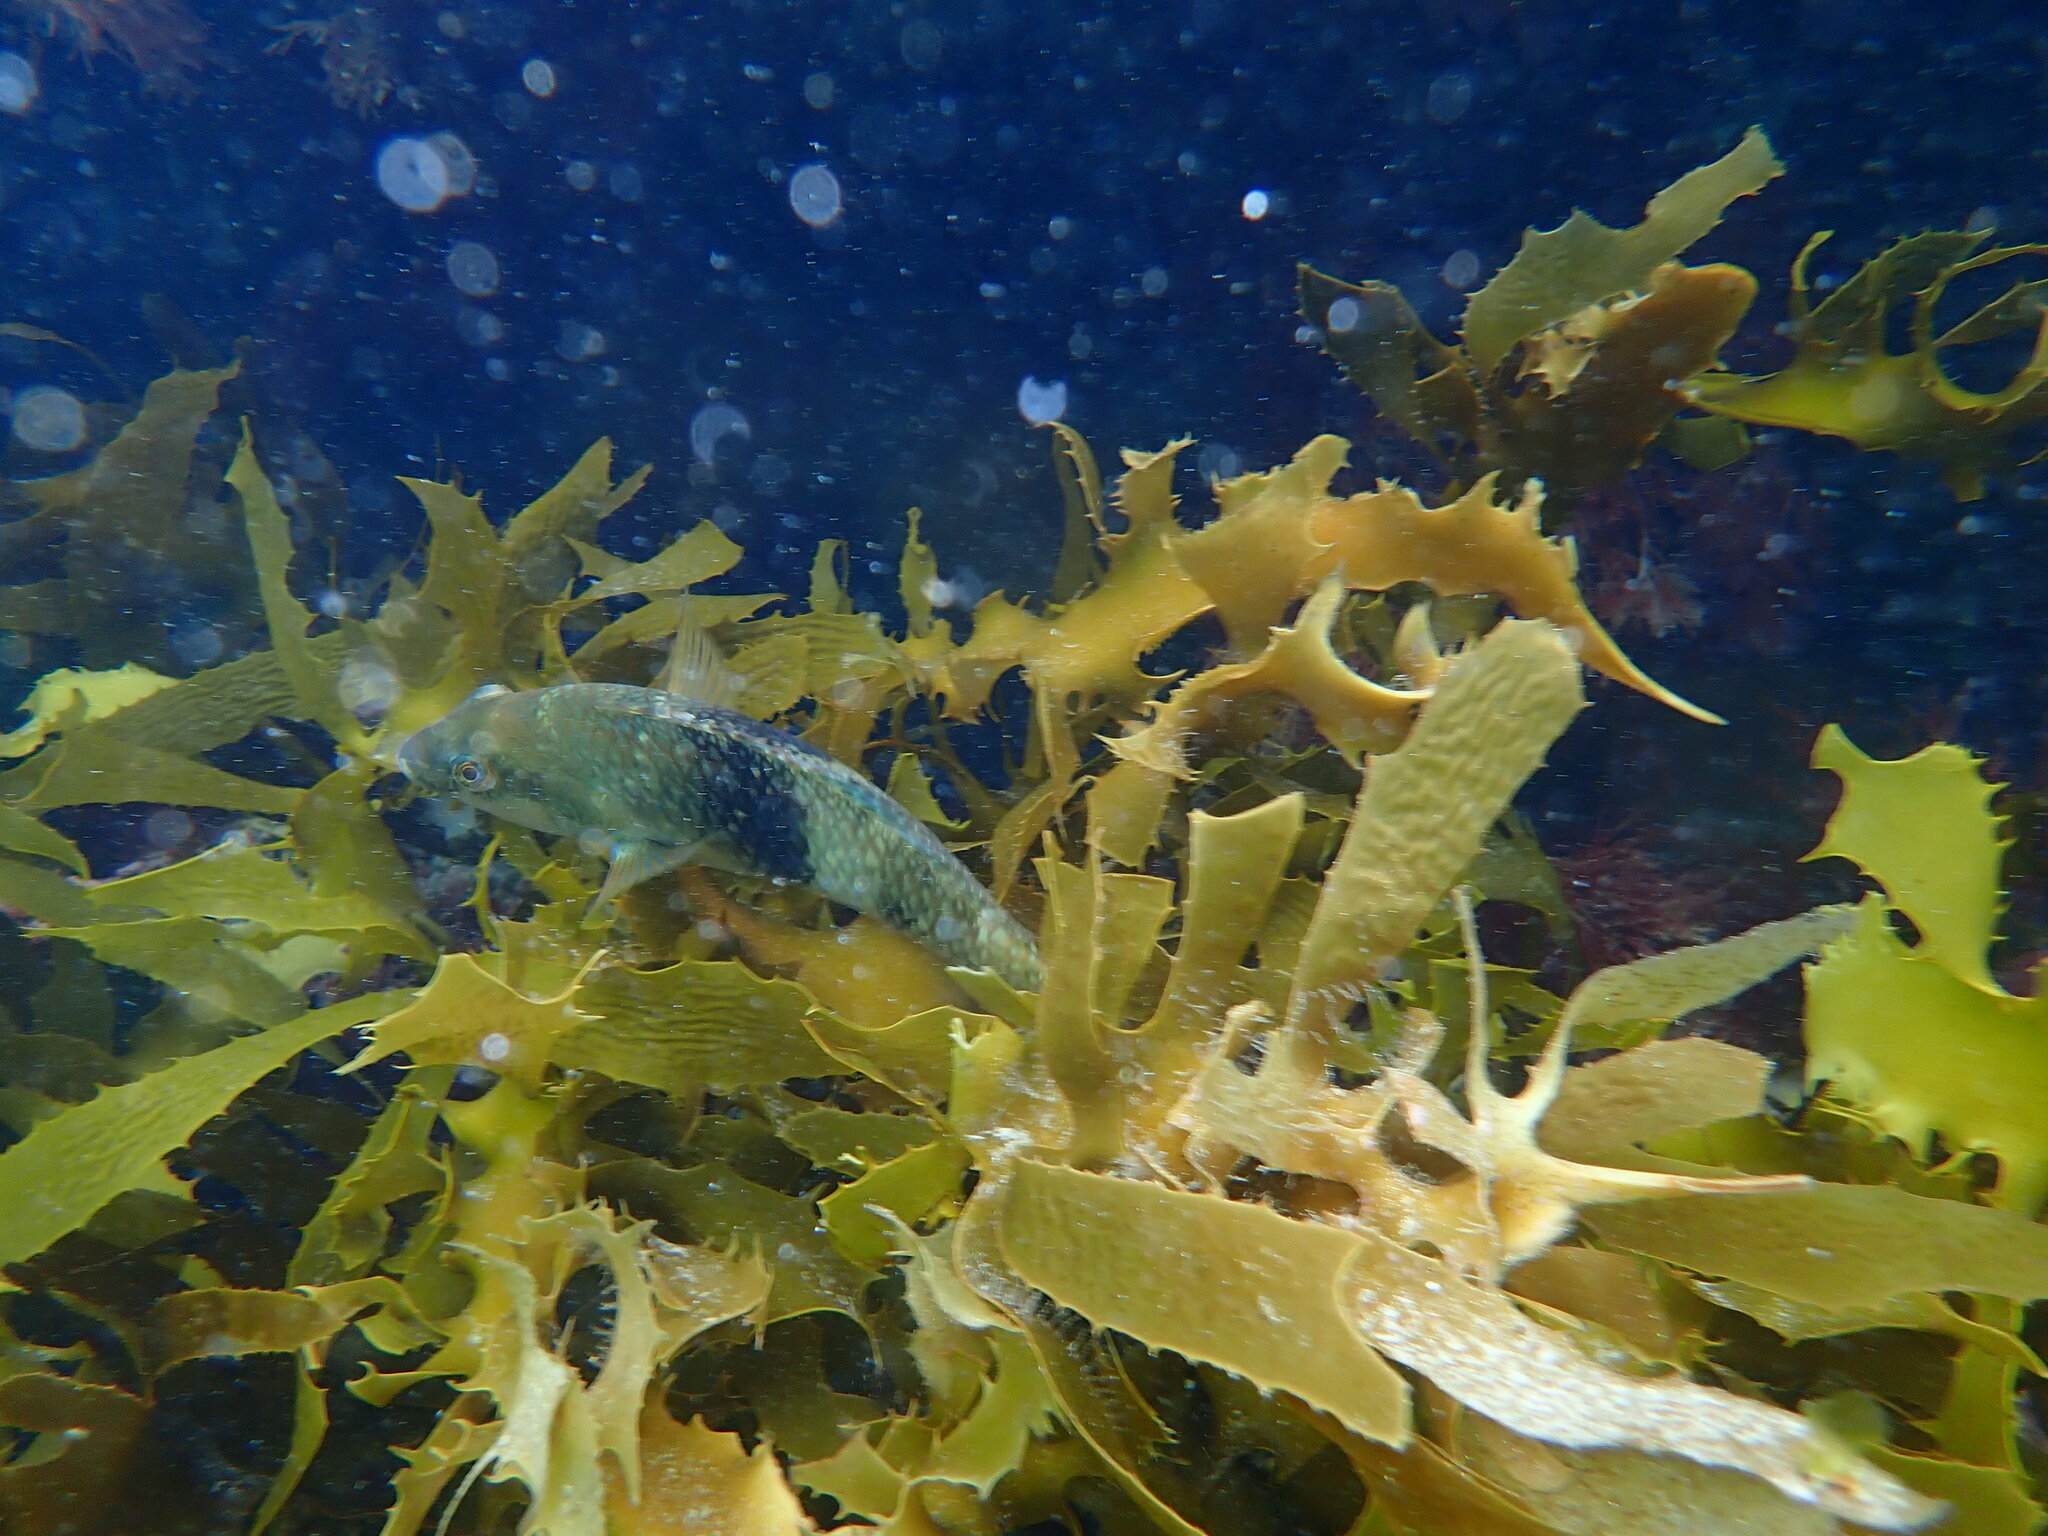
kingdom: Animalia
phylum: Chordata
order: Perciformes
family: Labridae
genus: Notolabrus
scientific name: Notolabrus tetricus
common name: Blue-throated parrotfish
